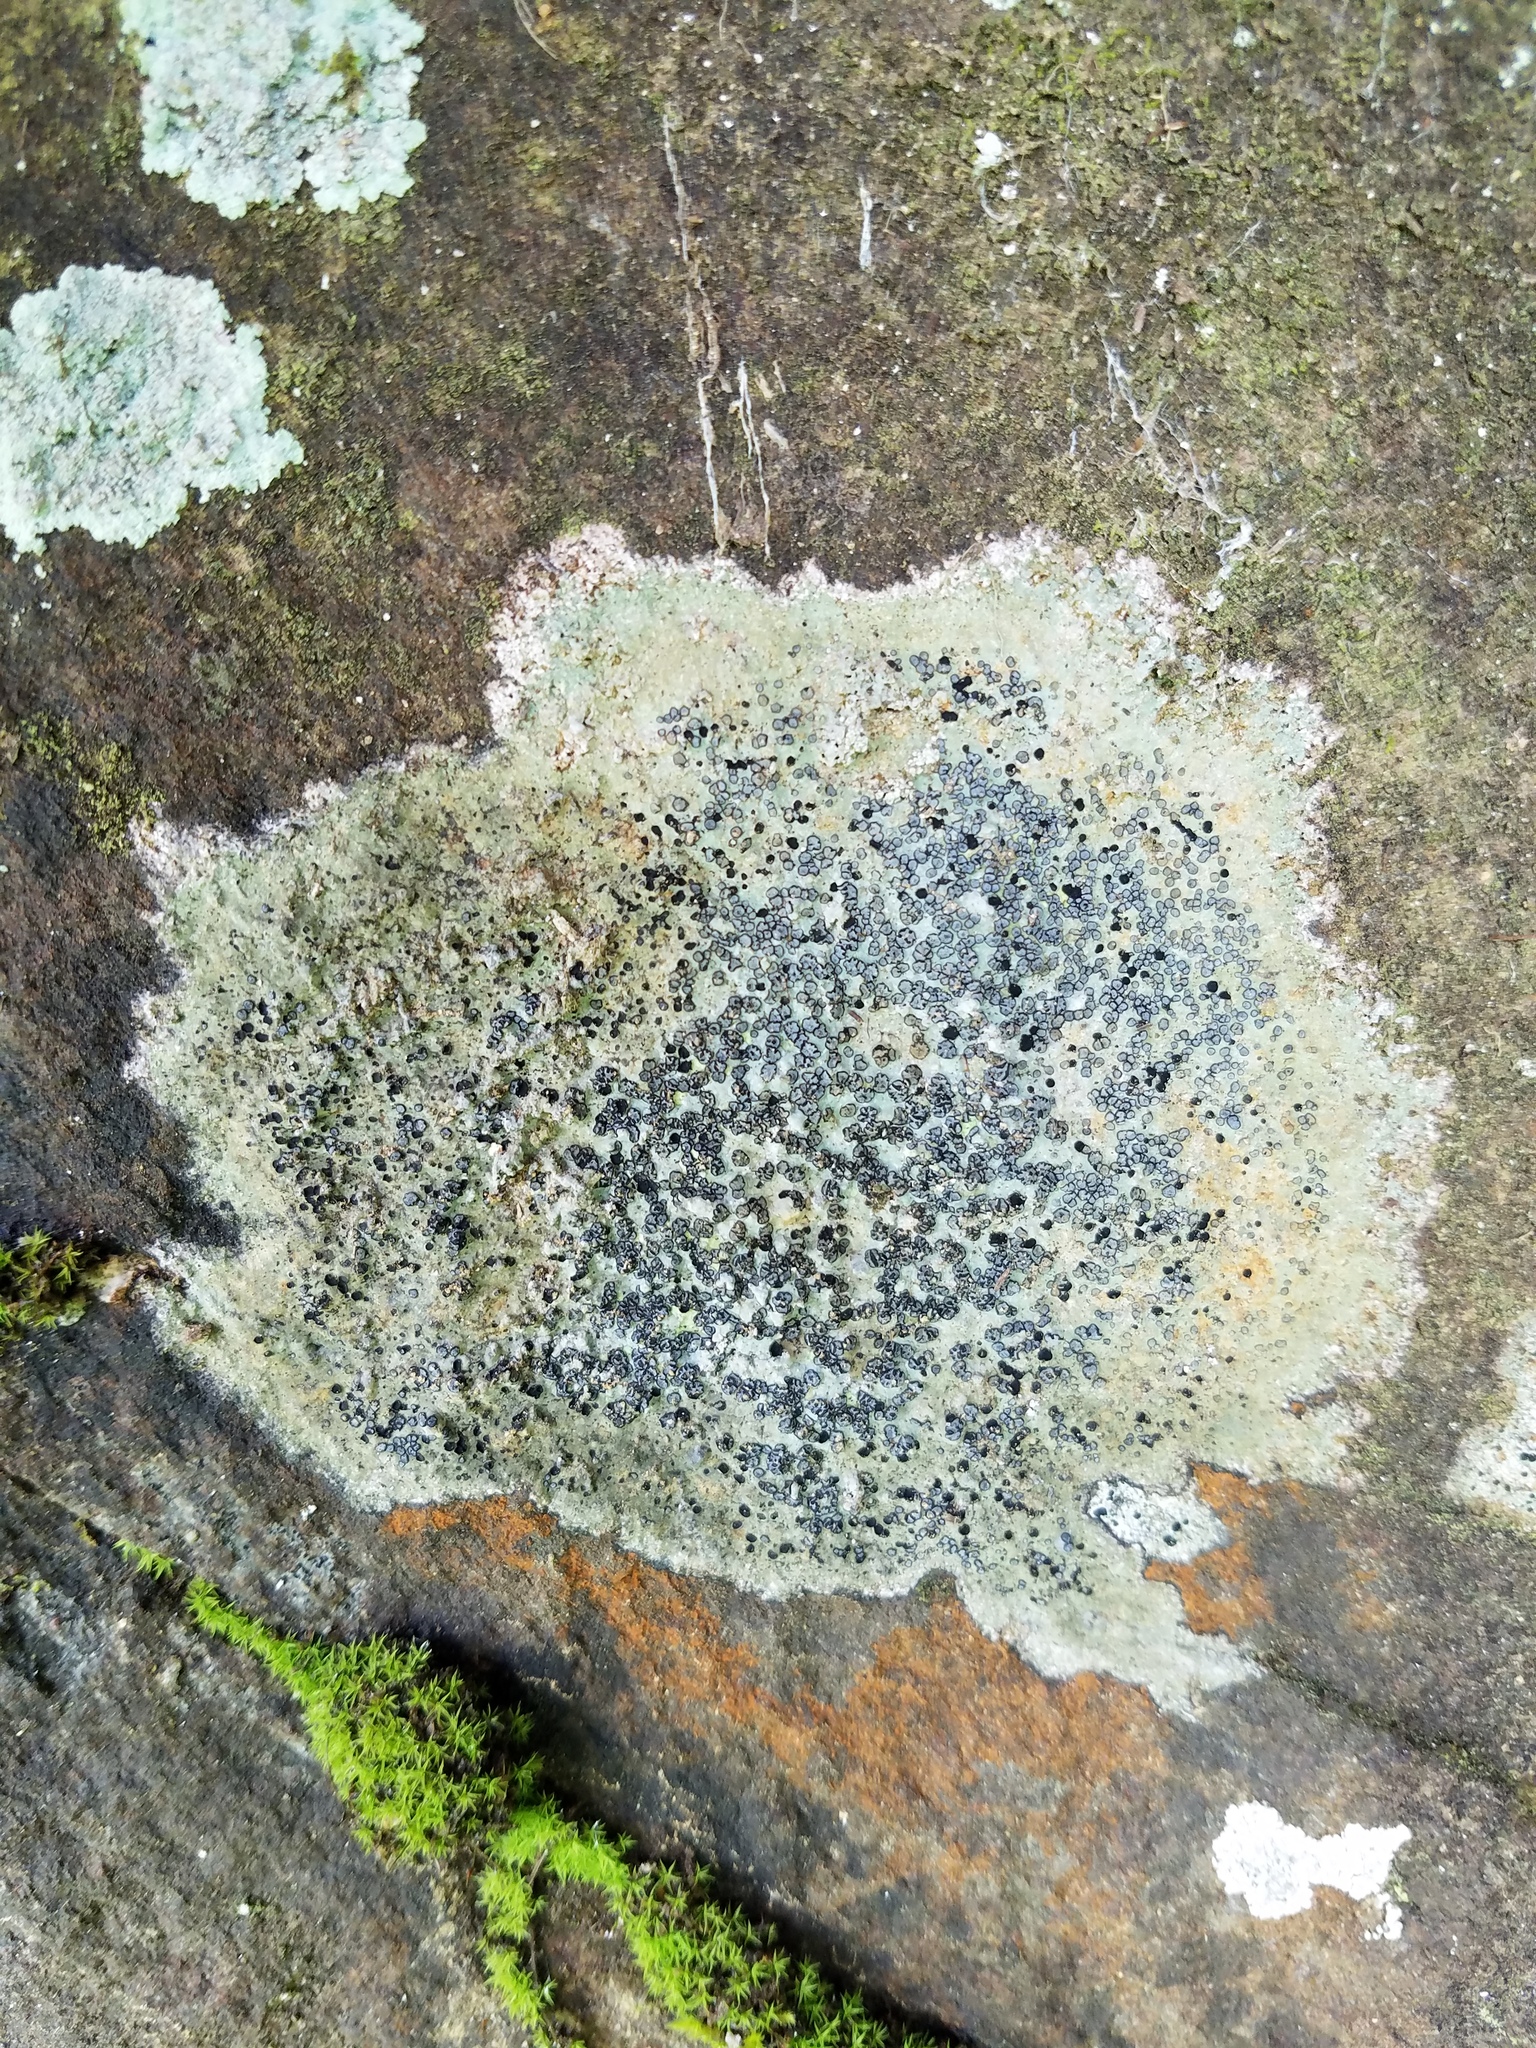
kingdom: Fungi
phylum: Ascomycota
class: Lecanoromycetes
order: Lecideales
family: Lecideaceae
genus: Porpidia
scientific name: Porpidia albocaerulescens
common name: Smokey-eyed boulder lichen
